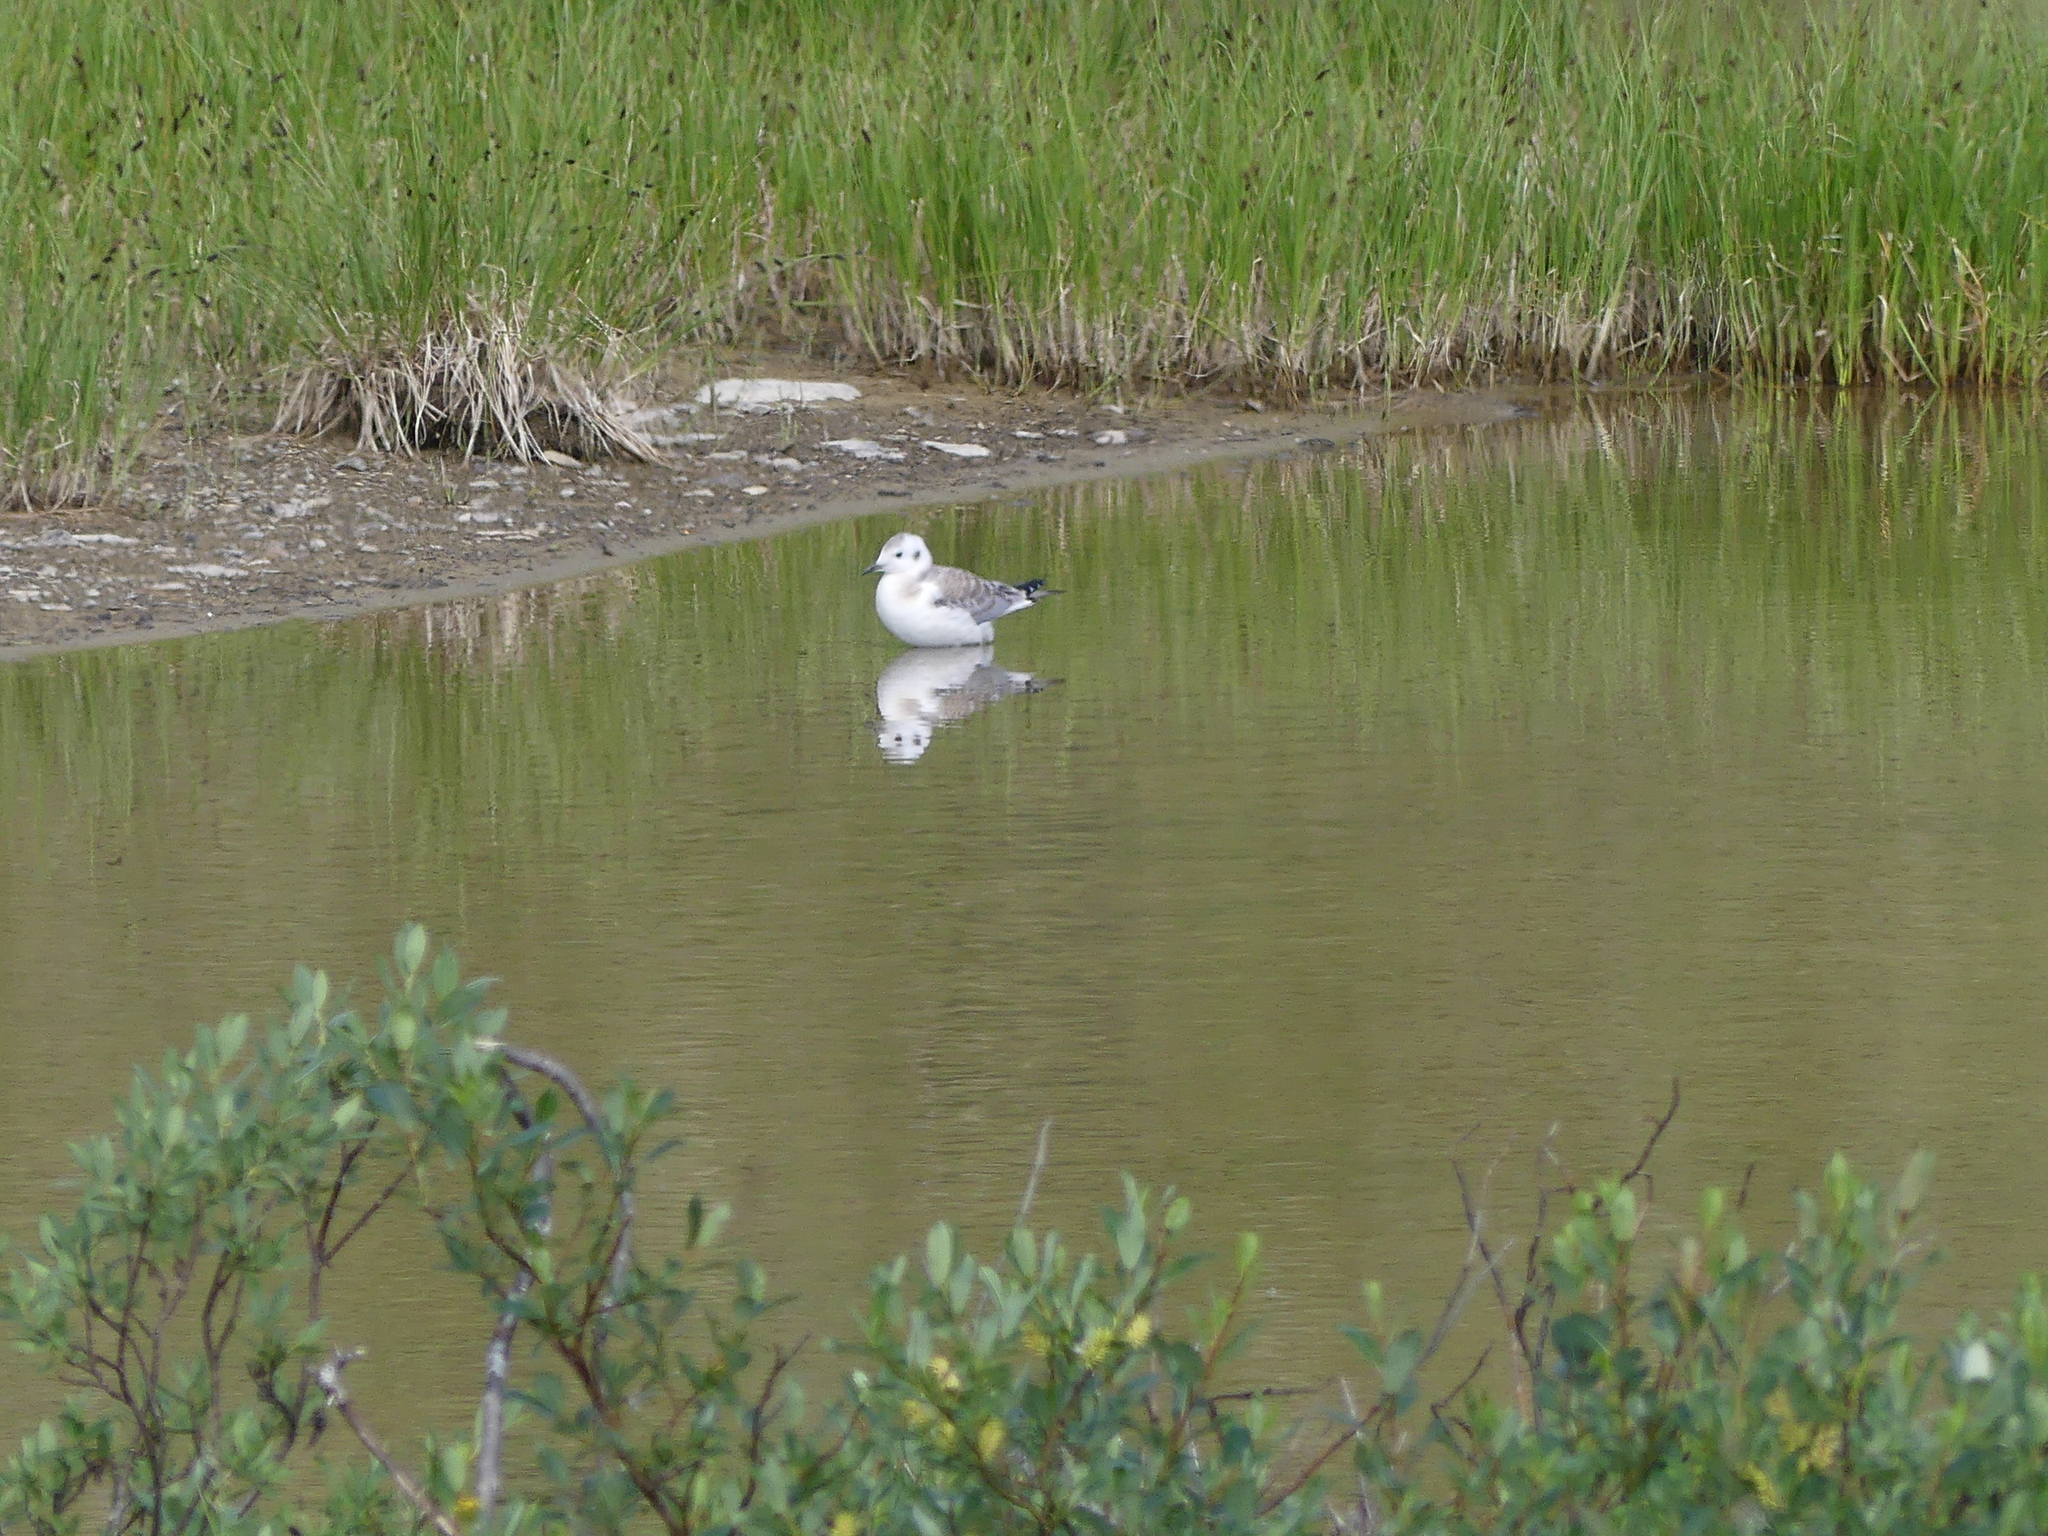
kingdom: Animalia
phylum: Chordata
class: Aves
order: Charadriiformes
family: Laridae
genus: Chroicocephalus
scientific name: Chroicocephalus philadelphia
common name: Bonaparte's gull
